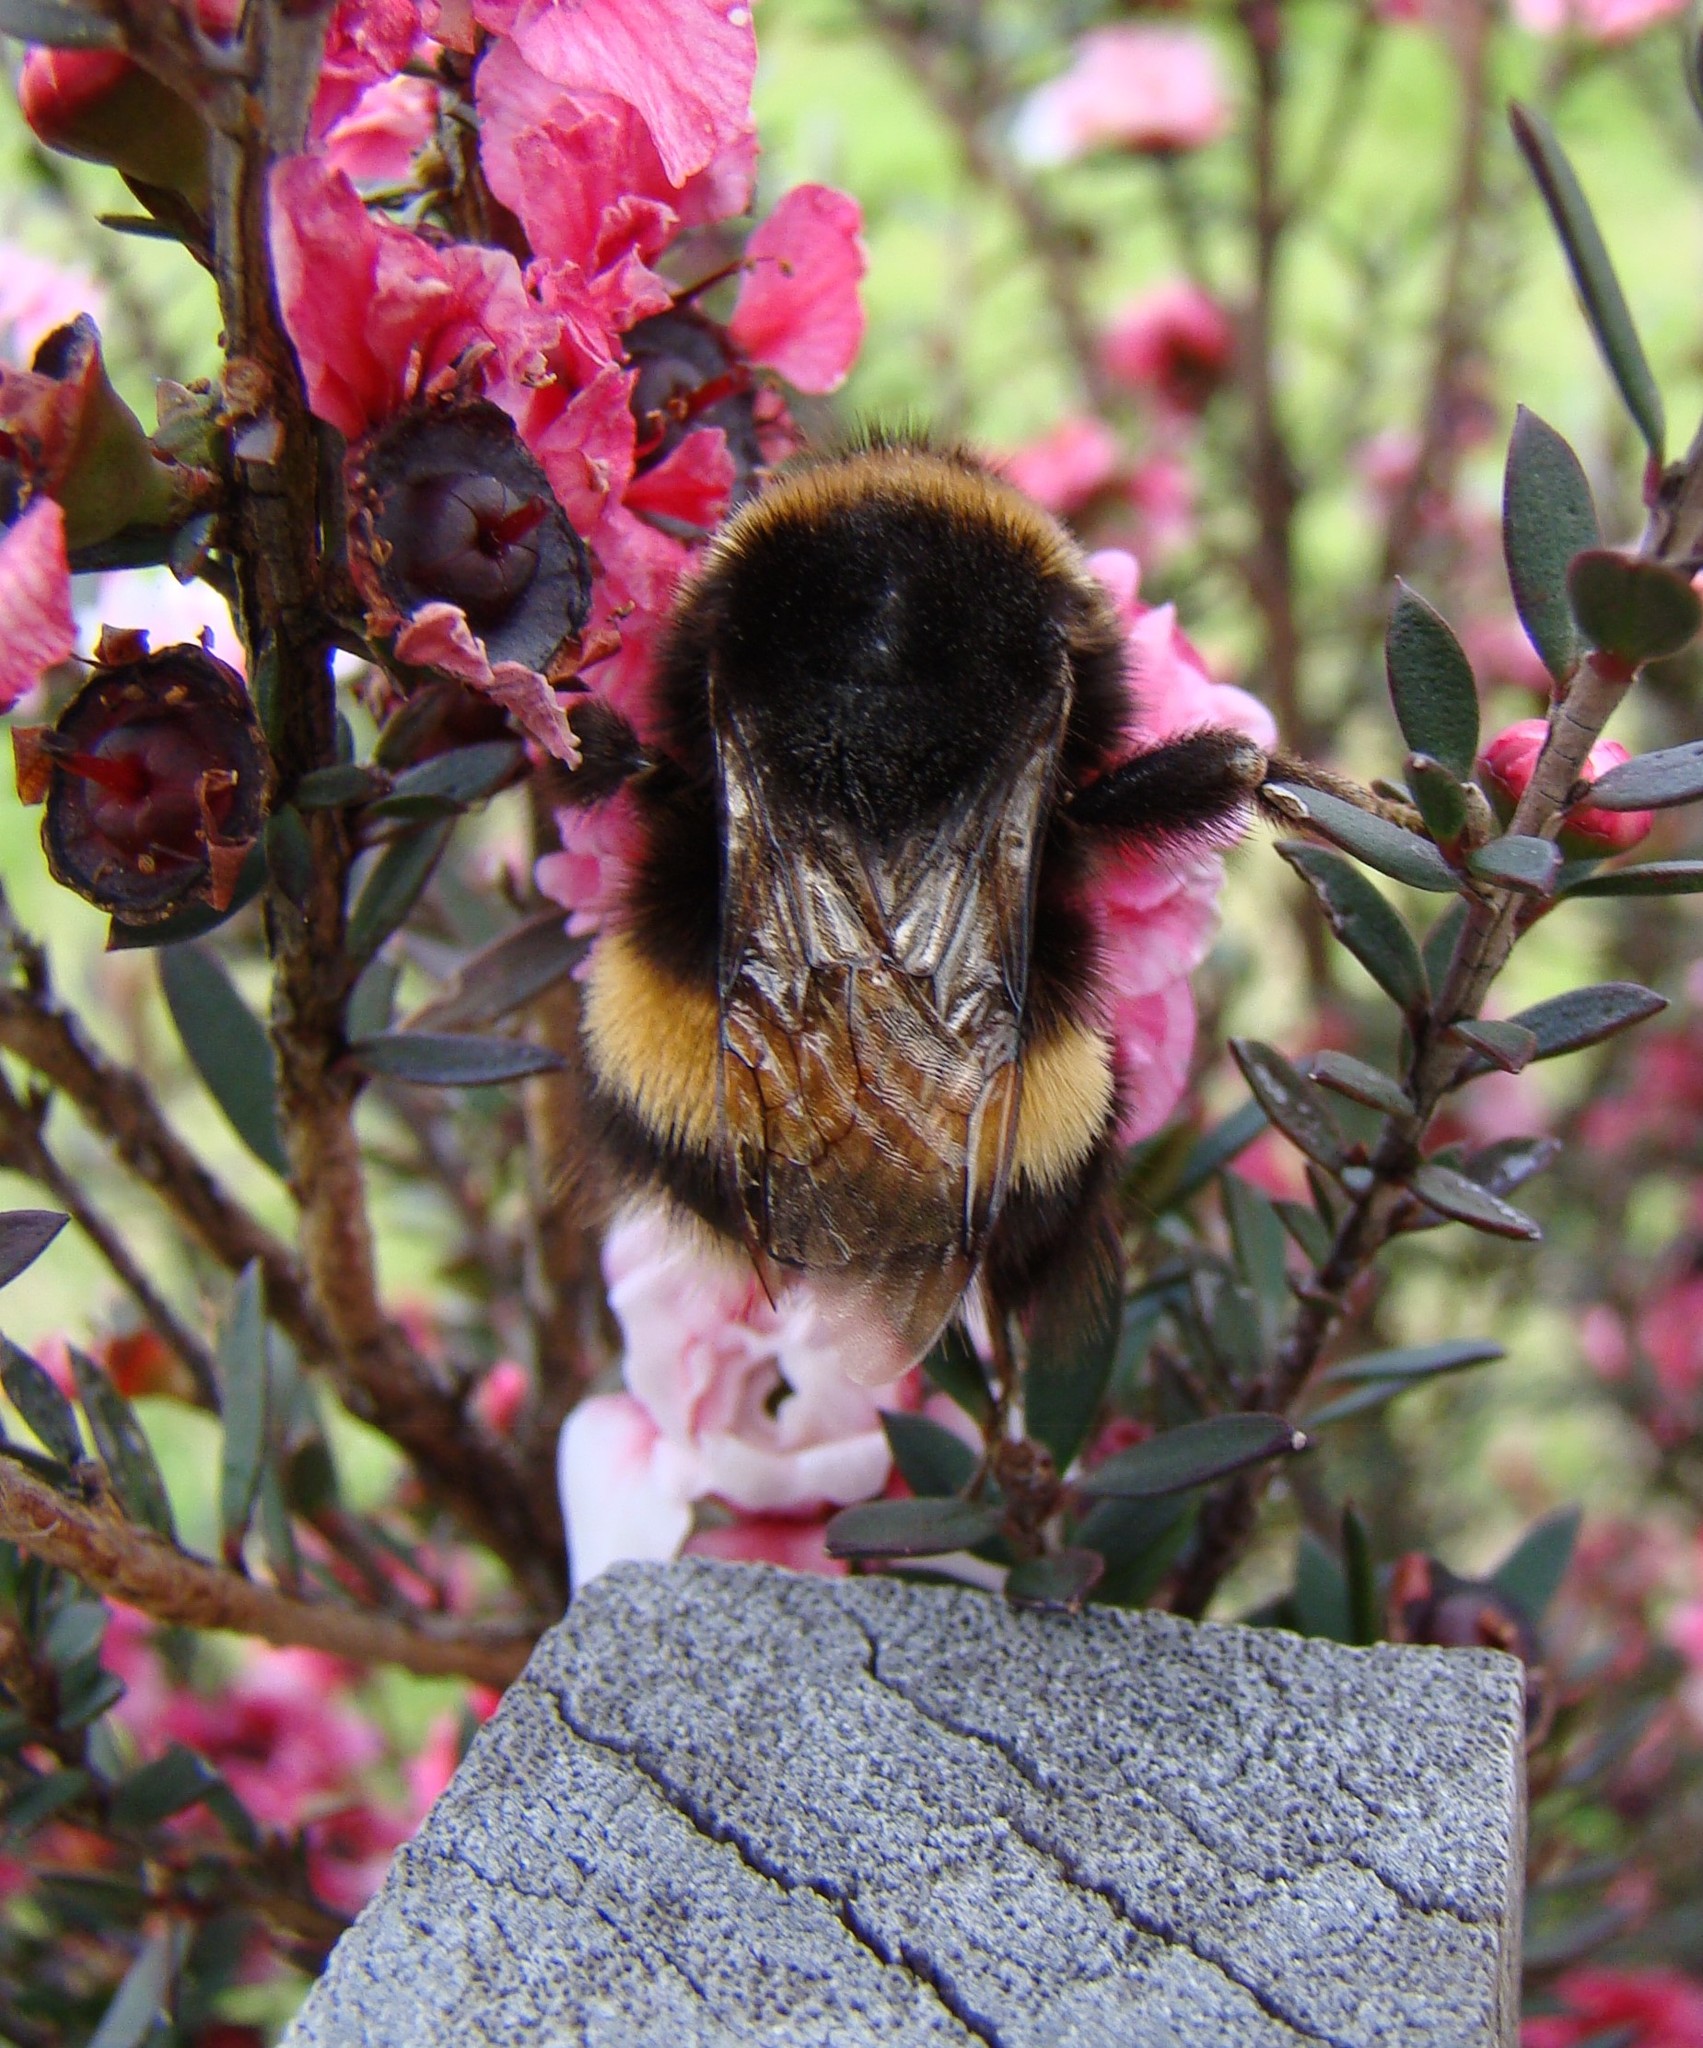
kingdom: Animalia
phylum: Arthropoda
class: Insecta
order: Hymenoptera
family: Apidae
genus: Bombus
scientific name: Bombus terrestris
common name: Buff-tailed bumblebee
